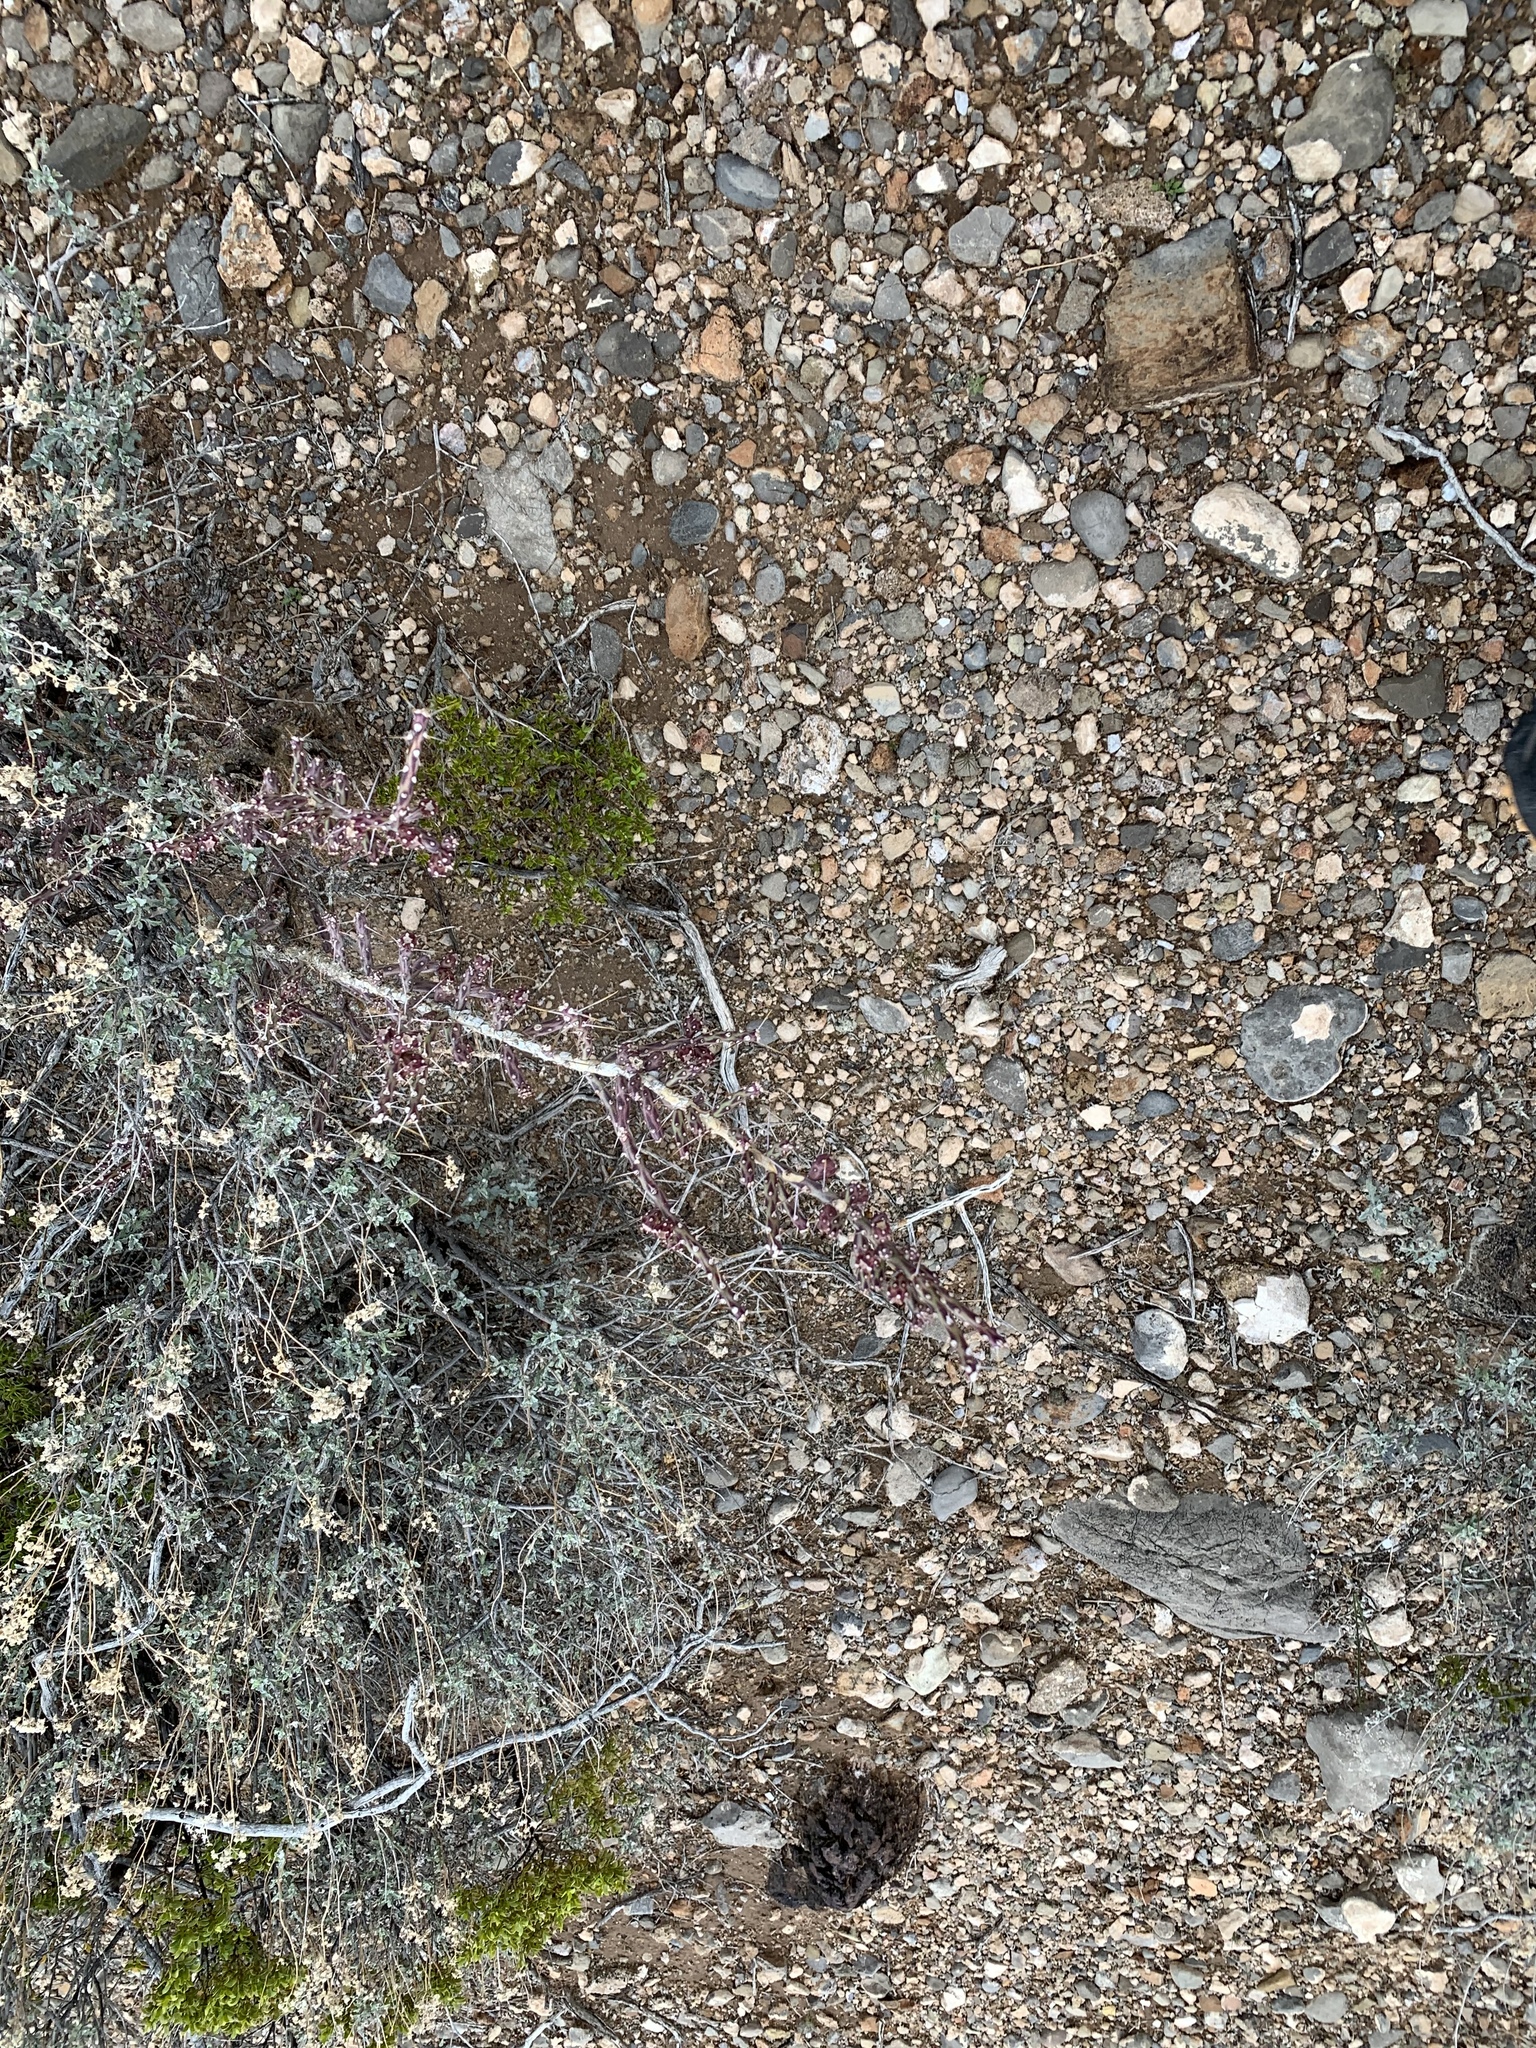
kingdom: Plantae
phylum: Tracheophyta
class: Magnoliopsida
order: Caryophyllales
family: Cactaceae
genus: Cylindropuntia
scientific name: Cylindropuntia leptocaulis
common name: Christmas cactus
